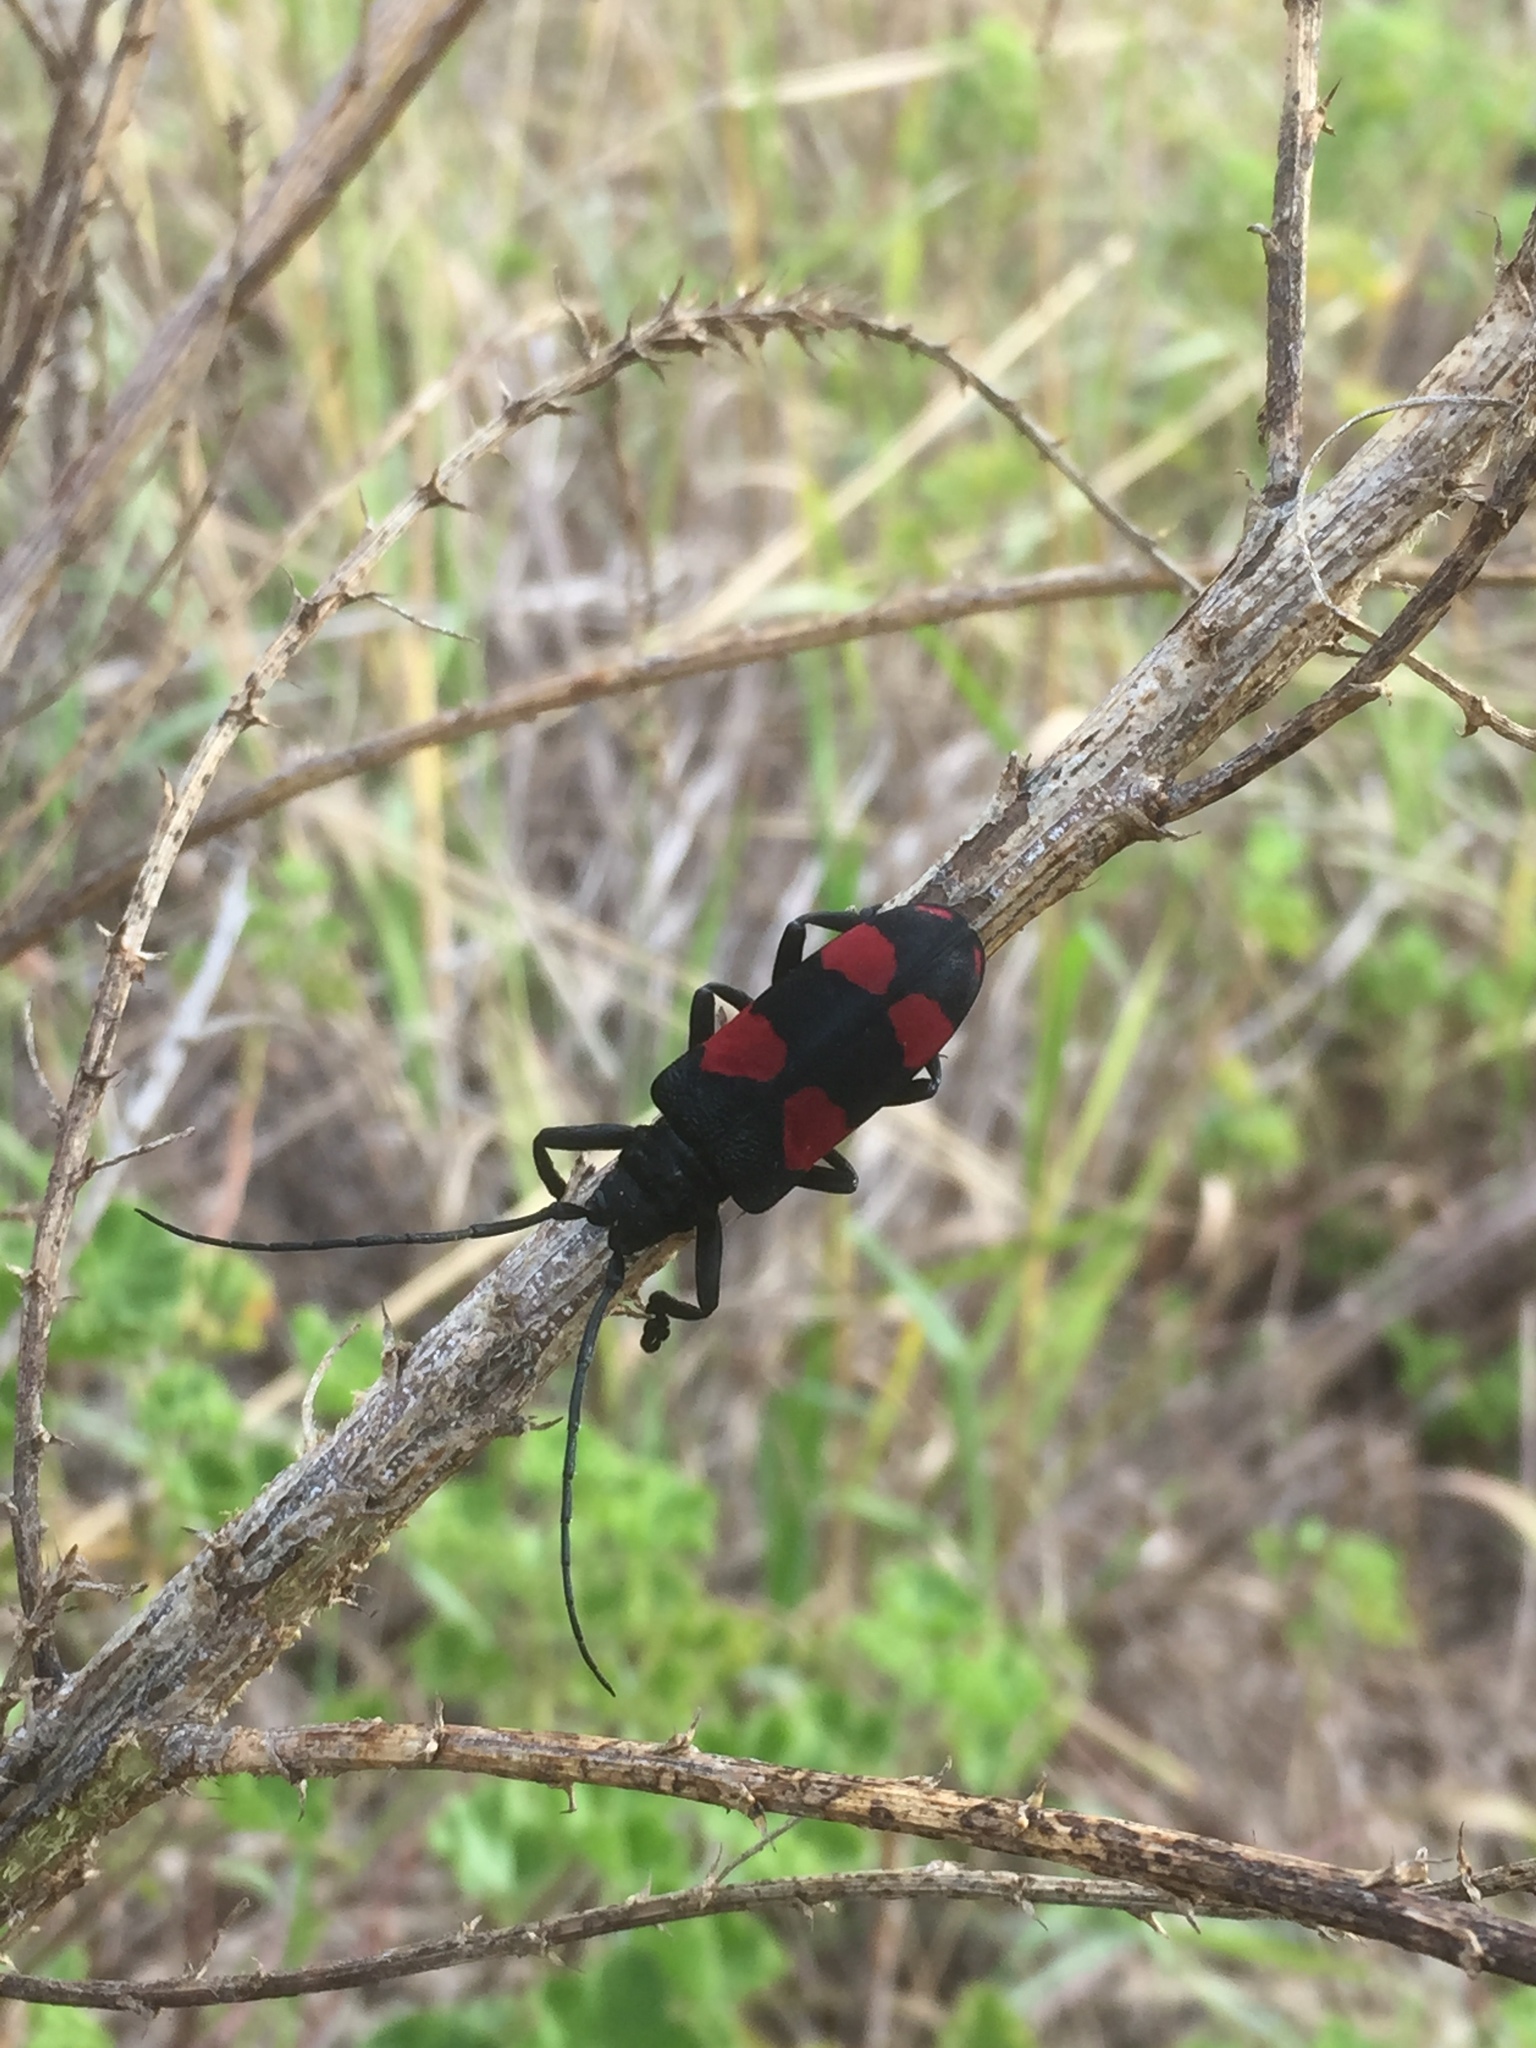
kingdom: Animalia
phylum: Arthropoda
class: Insecta
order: Coleoptera
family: Cerambycidae
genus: Ceroplesis
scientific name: Ceroplesis aethiops
